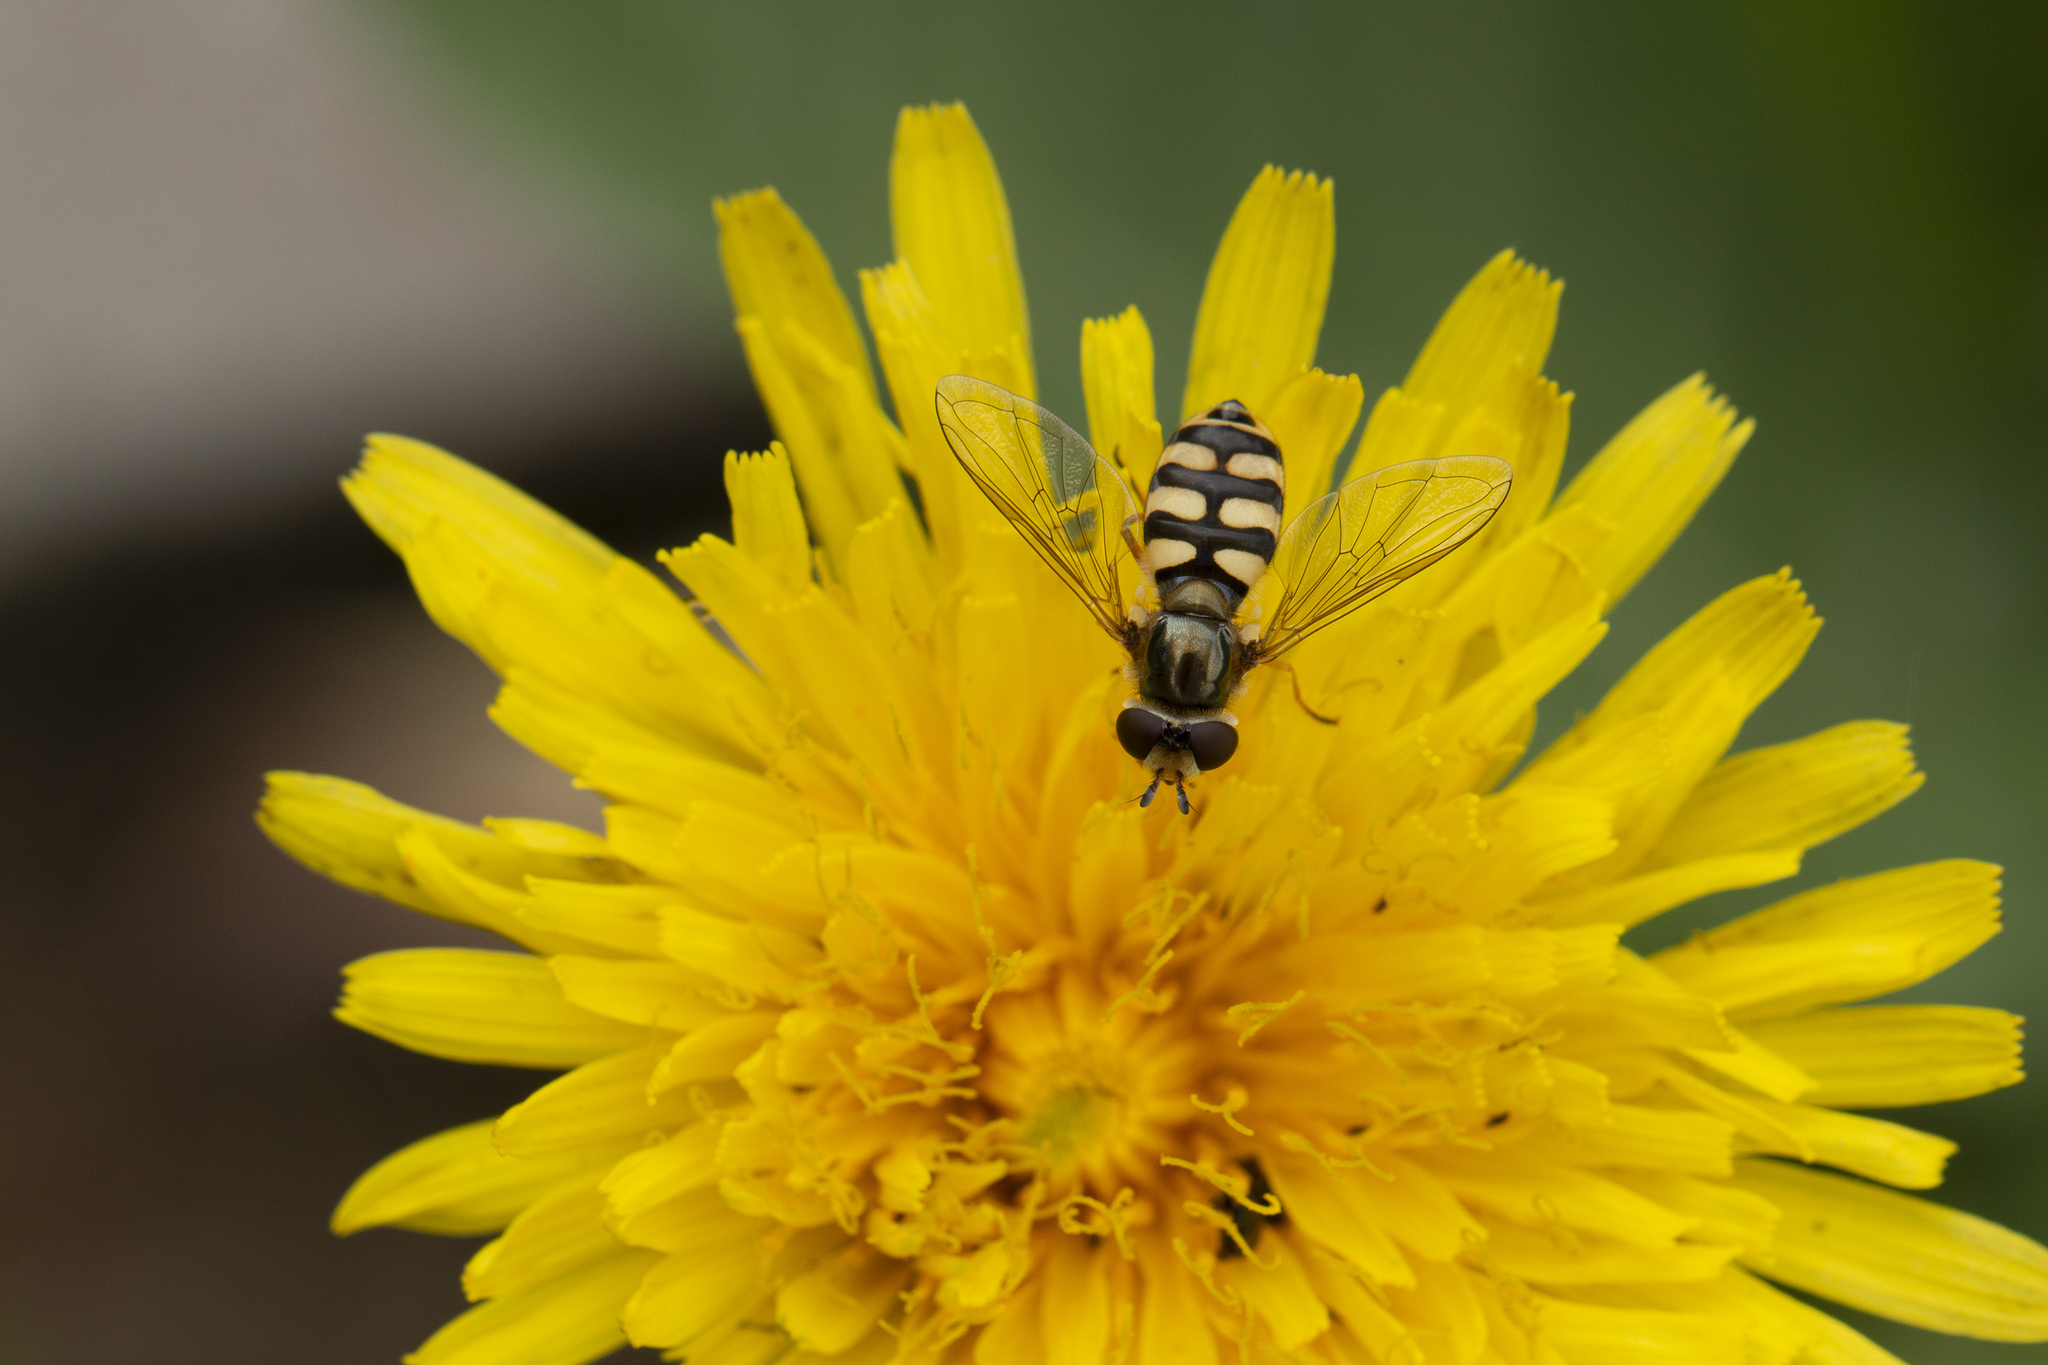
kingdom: Animalia
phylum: Arthropoda
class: Insecta
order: Diptera
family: Syrphidae
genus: Eupeodes
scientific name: Eupeodes corollae
